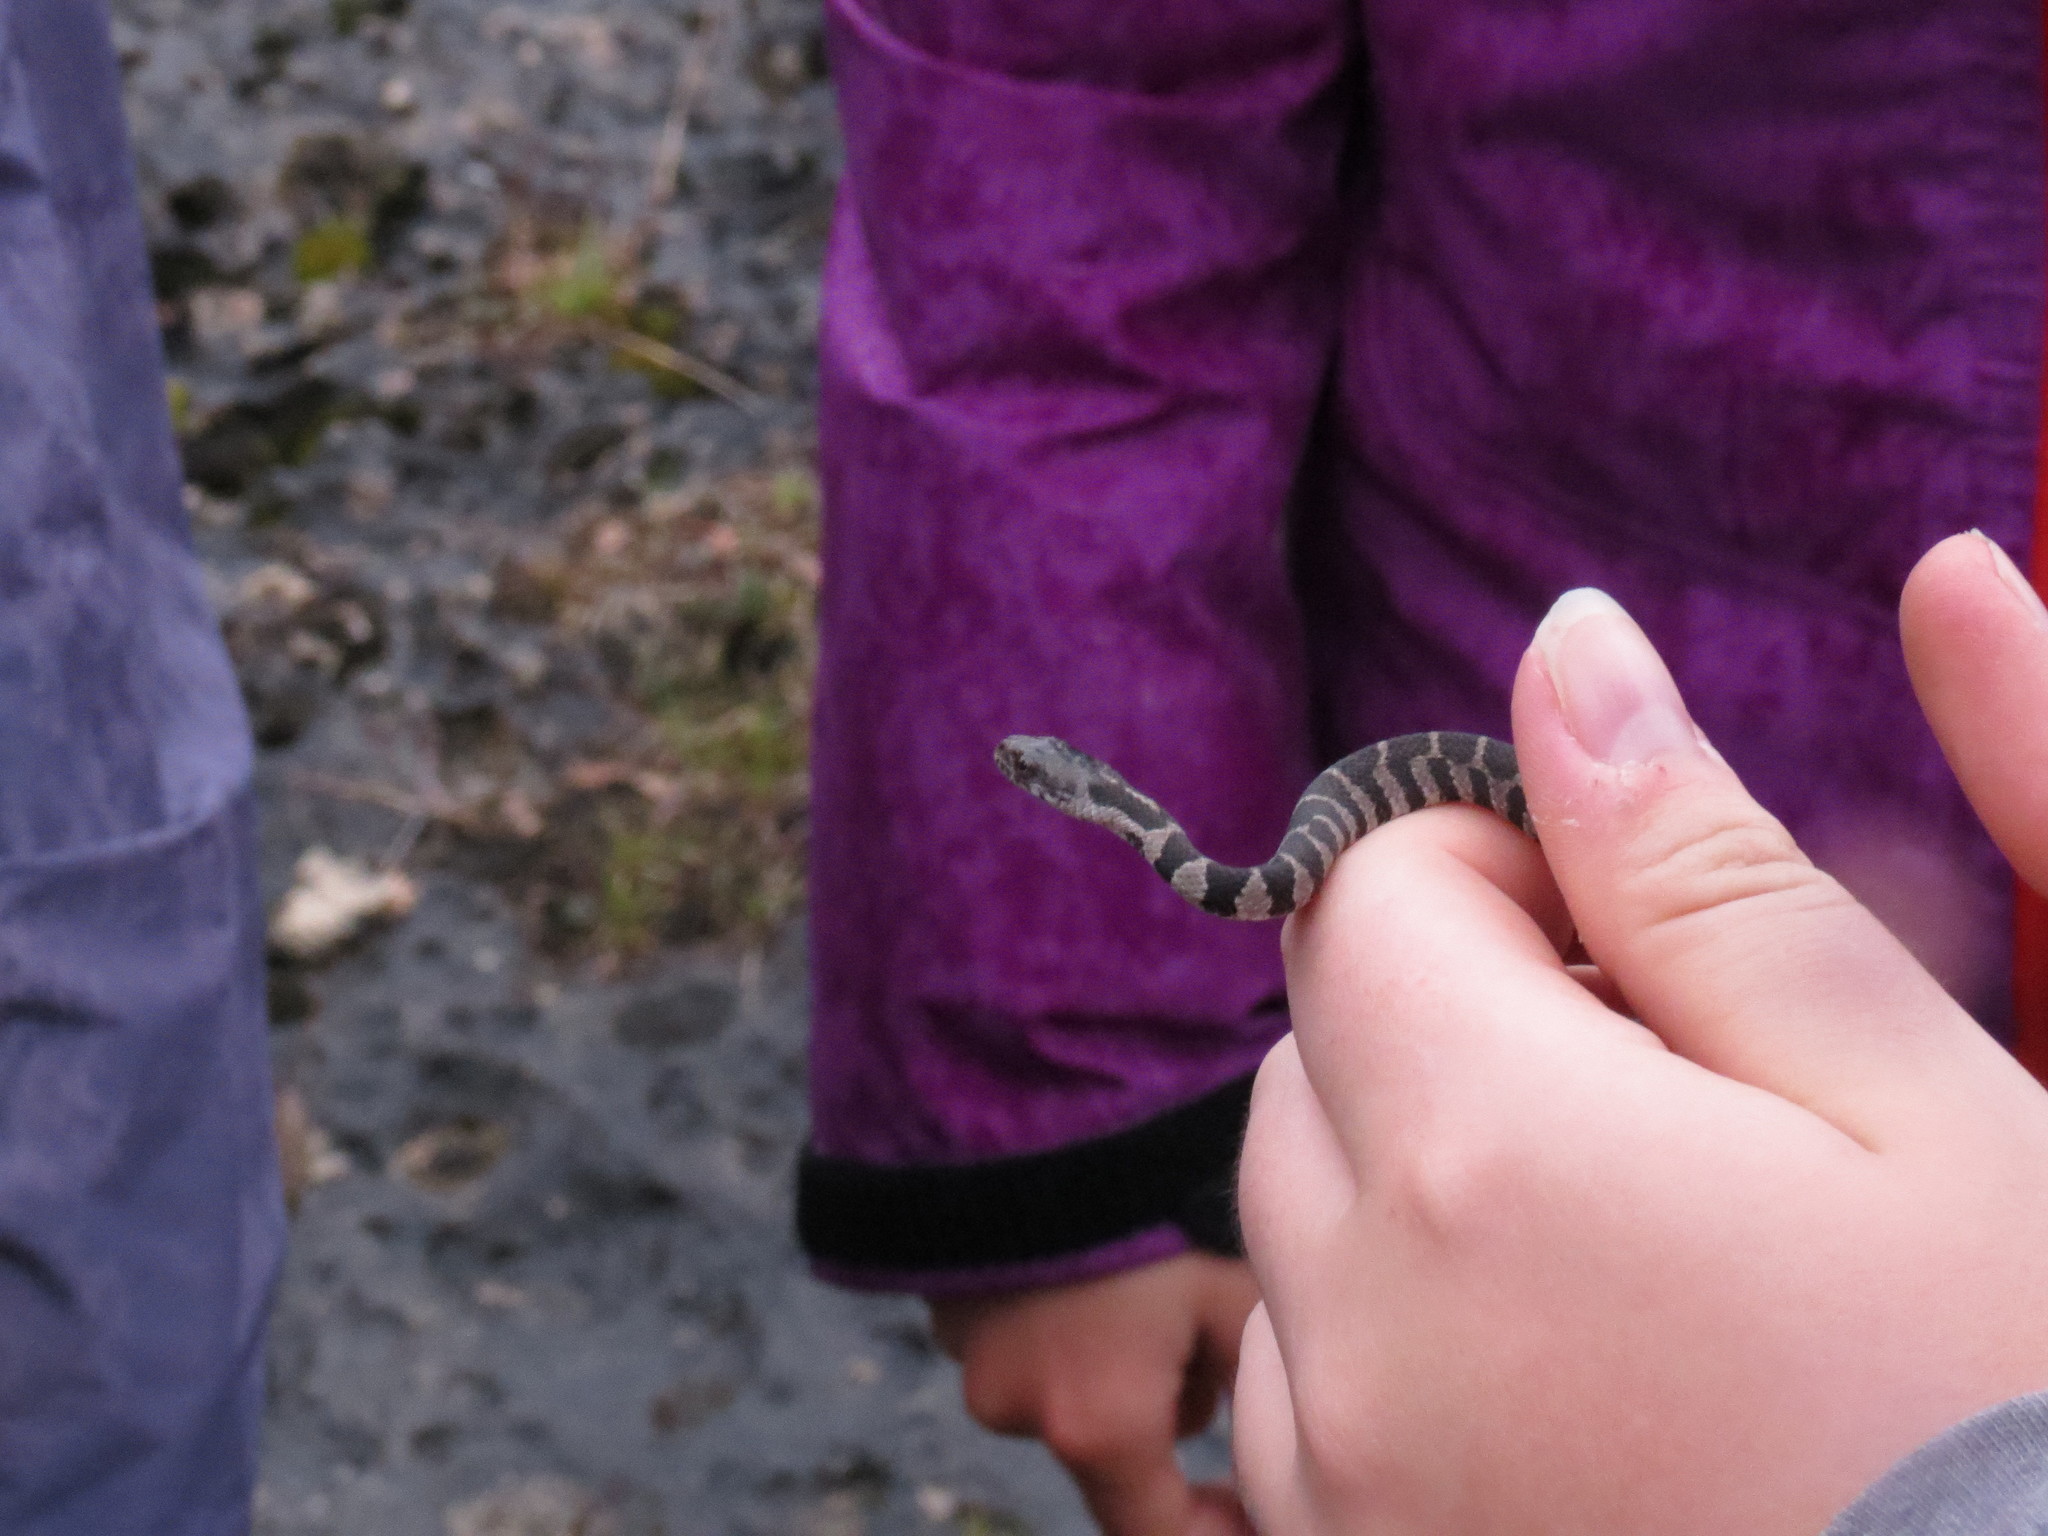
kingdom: Animalia
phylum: Chordata
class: Squamata
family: Colubridae
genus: Nerodia
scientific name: Nerodia sipedon
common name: Northern water snake
